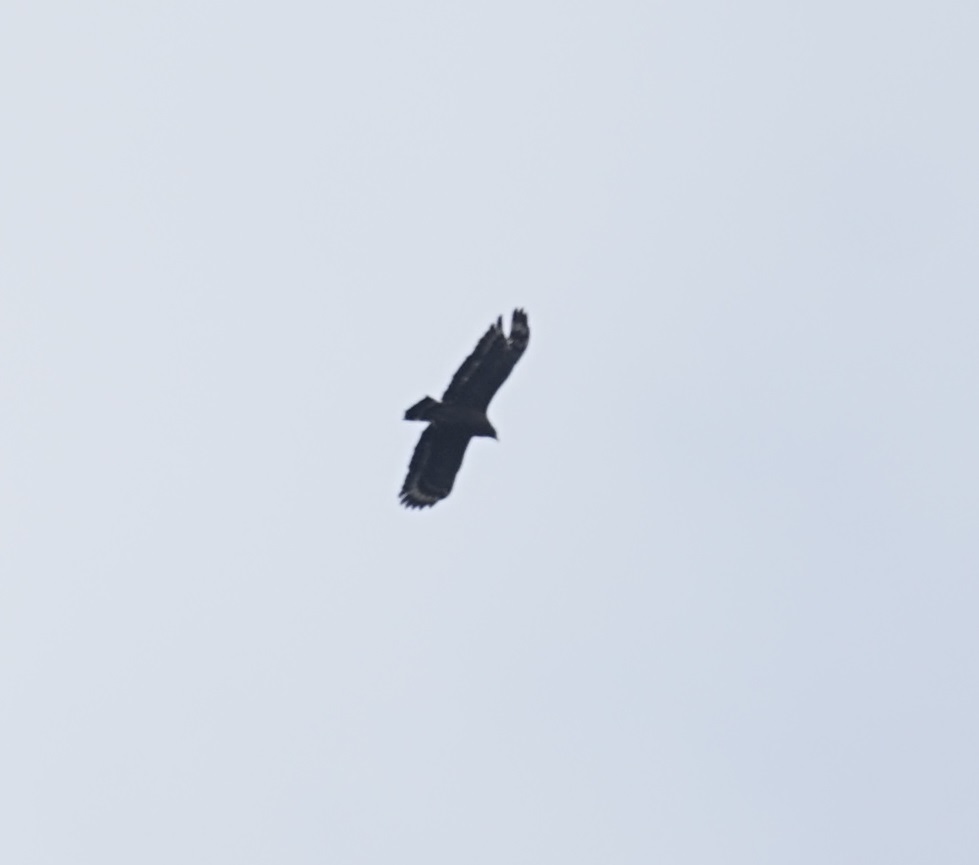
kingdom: Animalia
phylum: Chordata
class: Aves
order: Accipitriformes
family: Accipitridae
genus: Spilornis
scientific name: Spilornis cheela
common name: Crested serpent eagle
